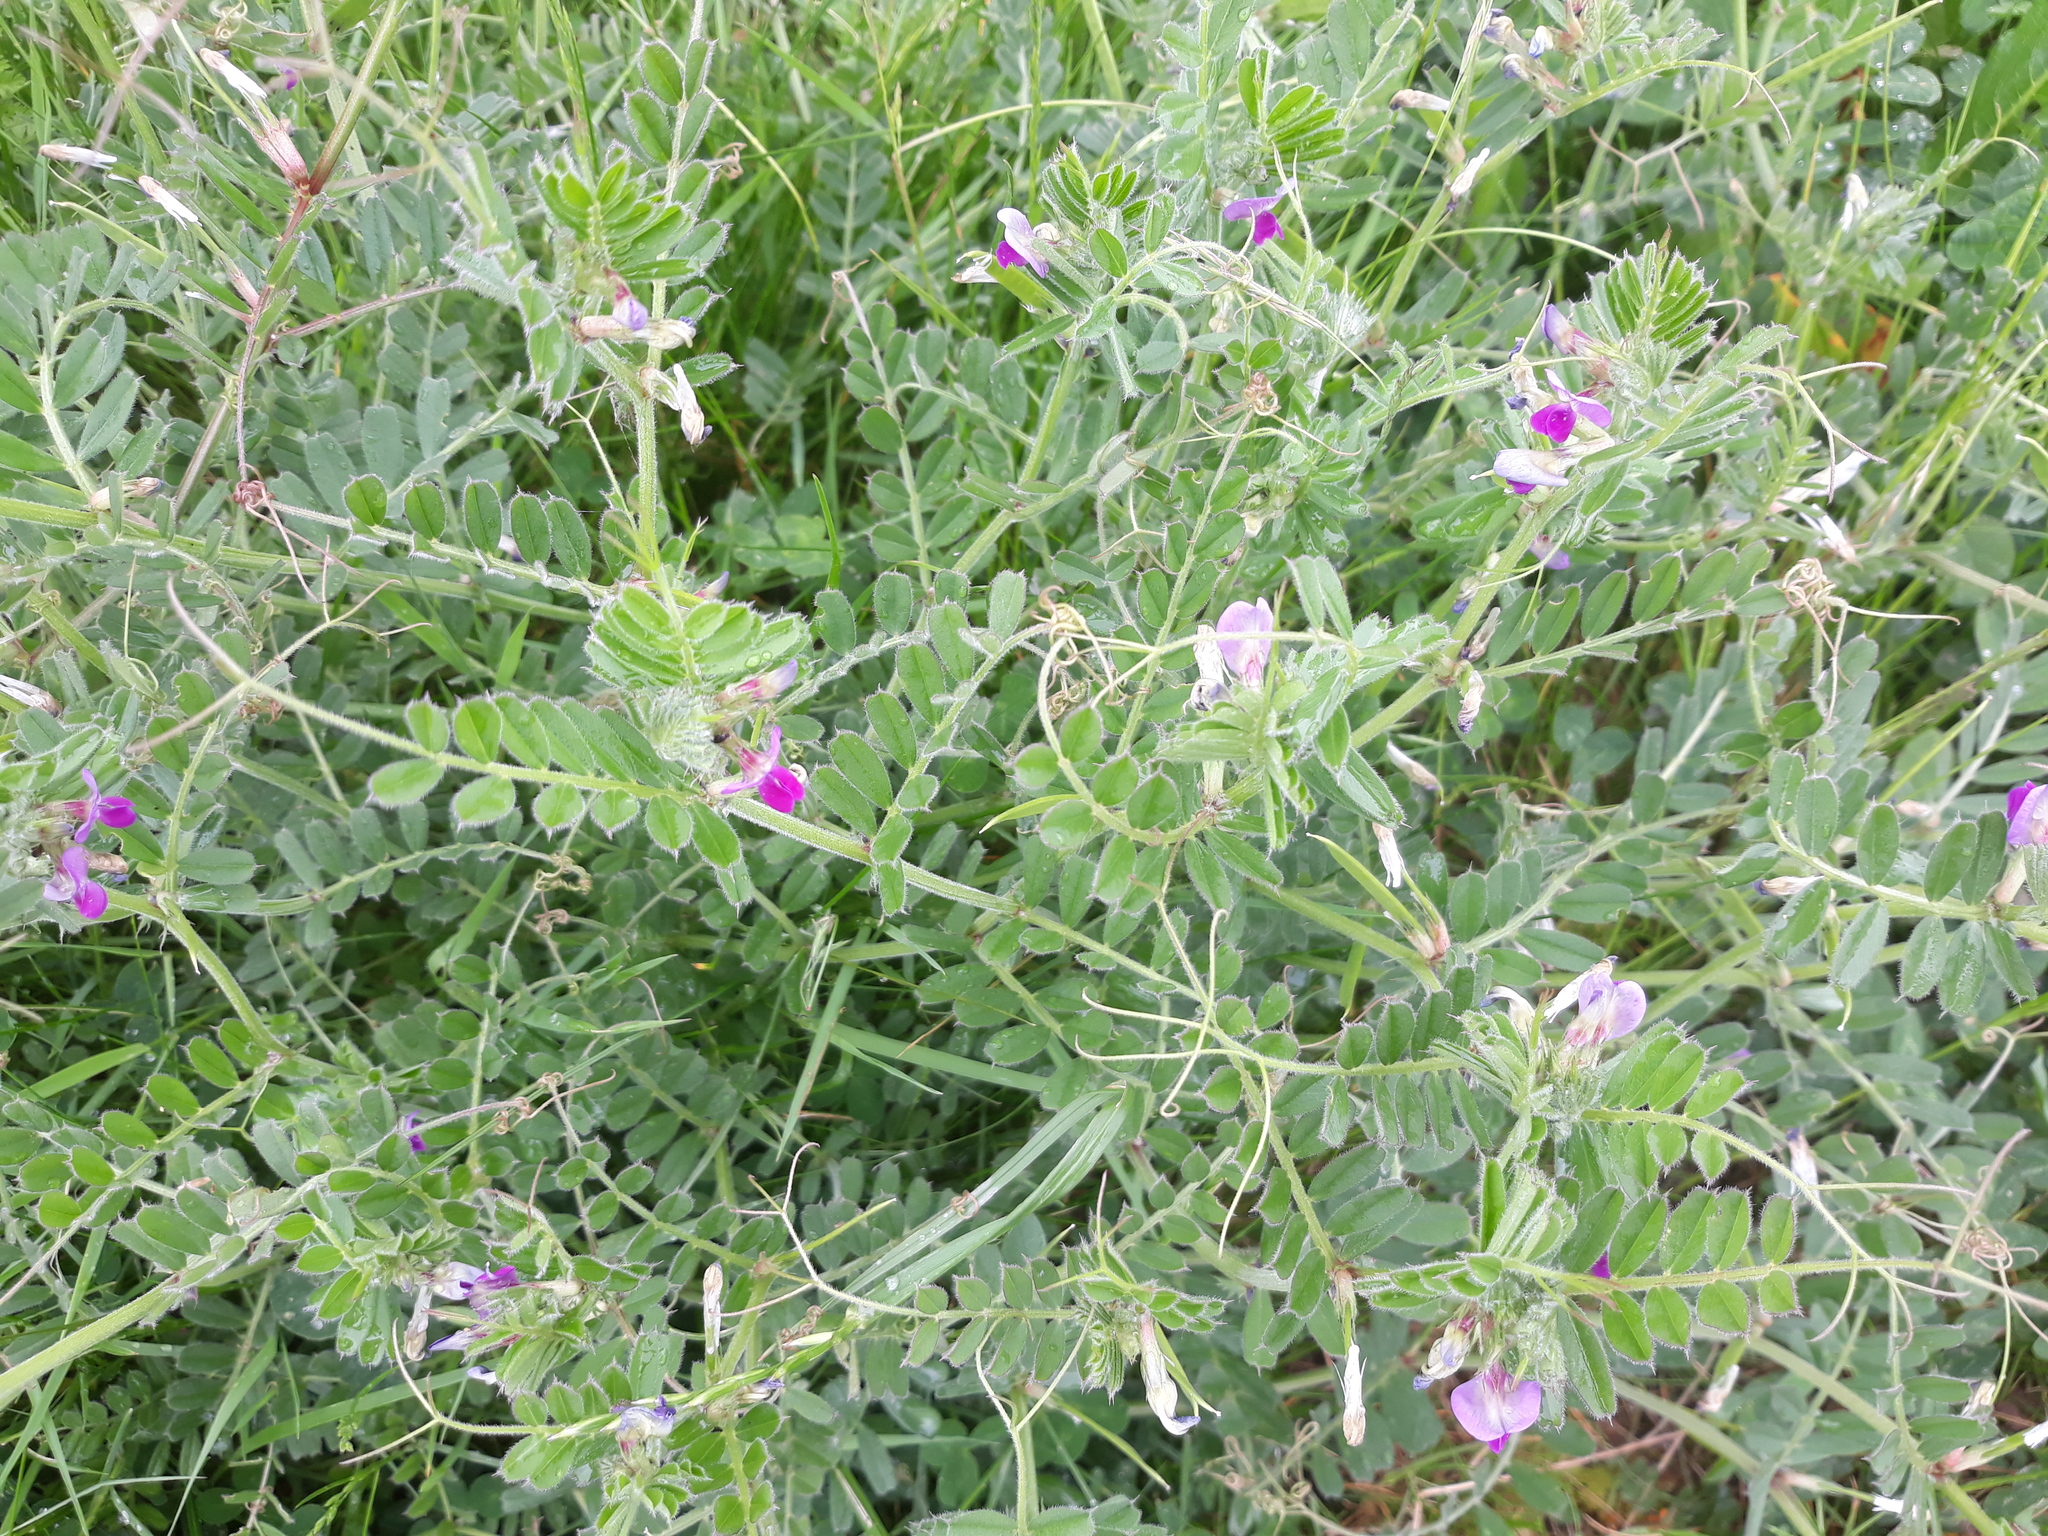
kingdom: Plantae
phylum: Tracheophyta
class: Magnoliopsida
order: Fabales
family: Fabaceae
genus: Vicia
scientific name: Vicia sativa
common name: Garden vetch
